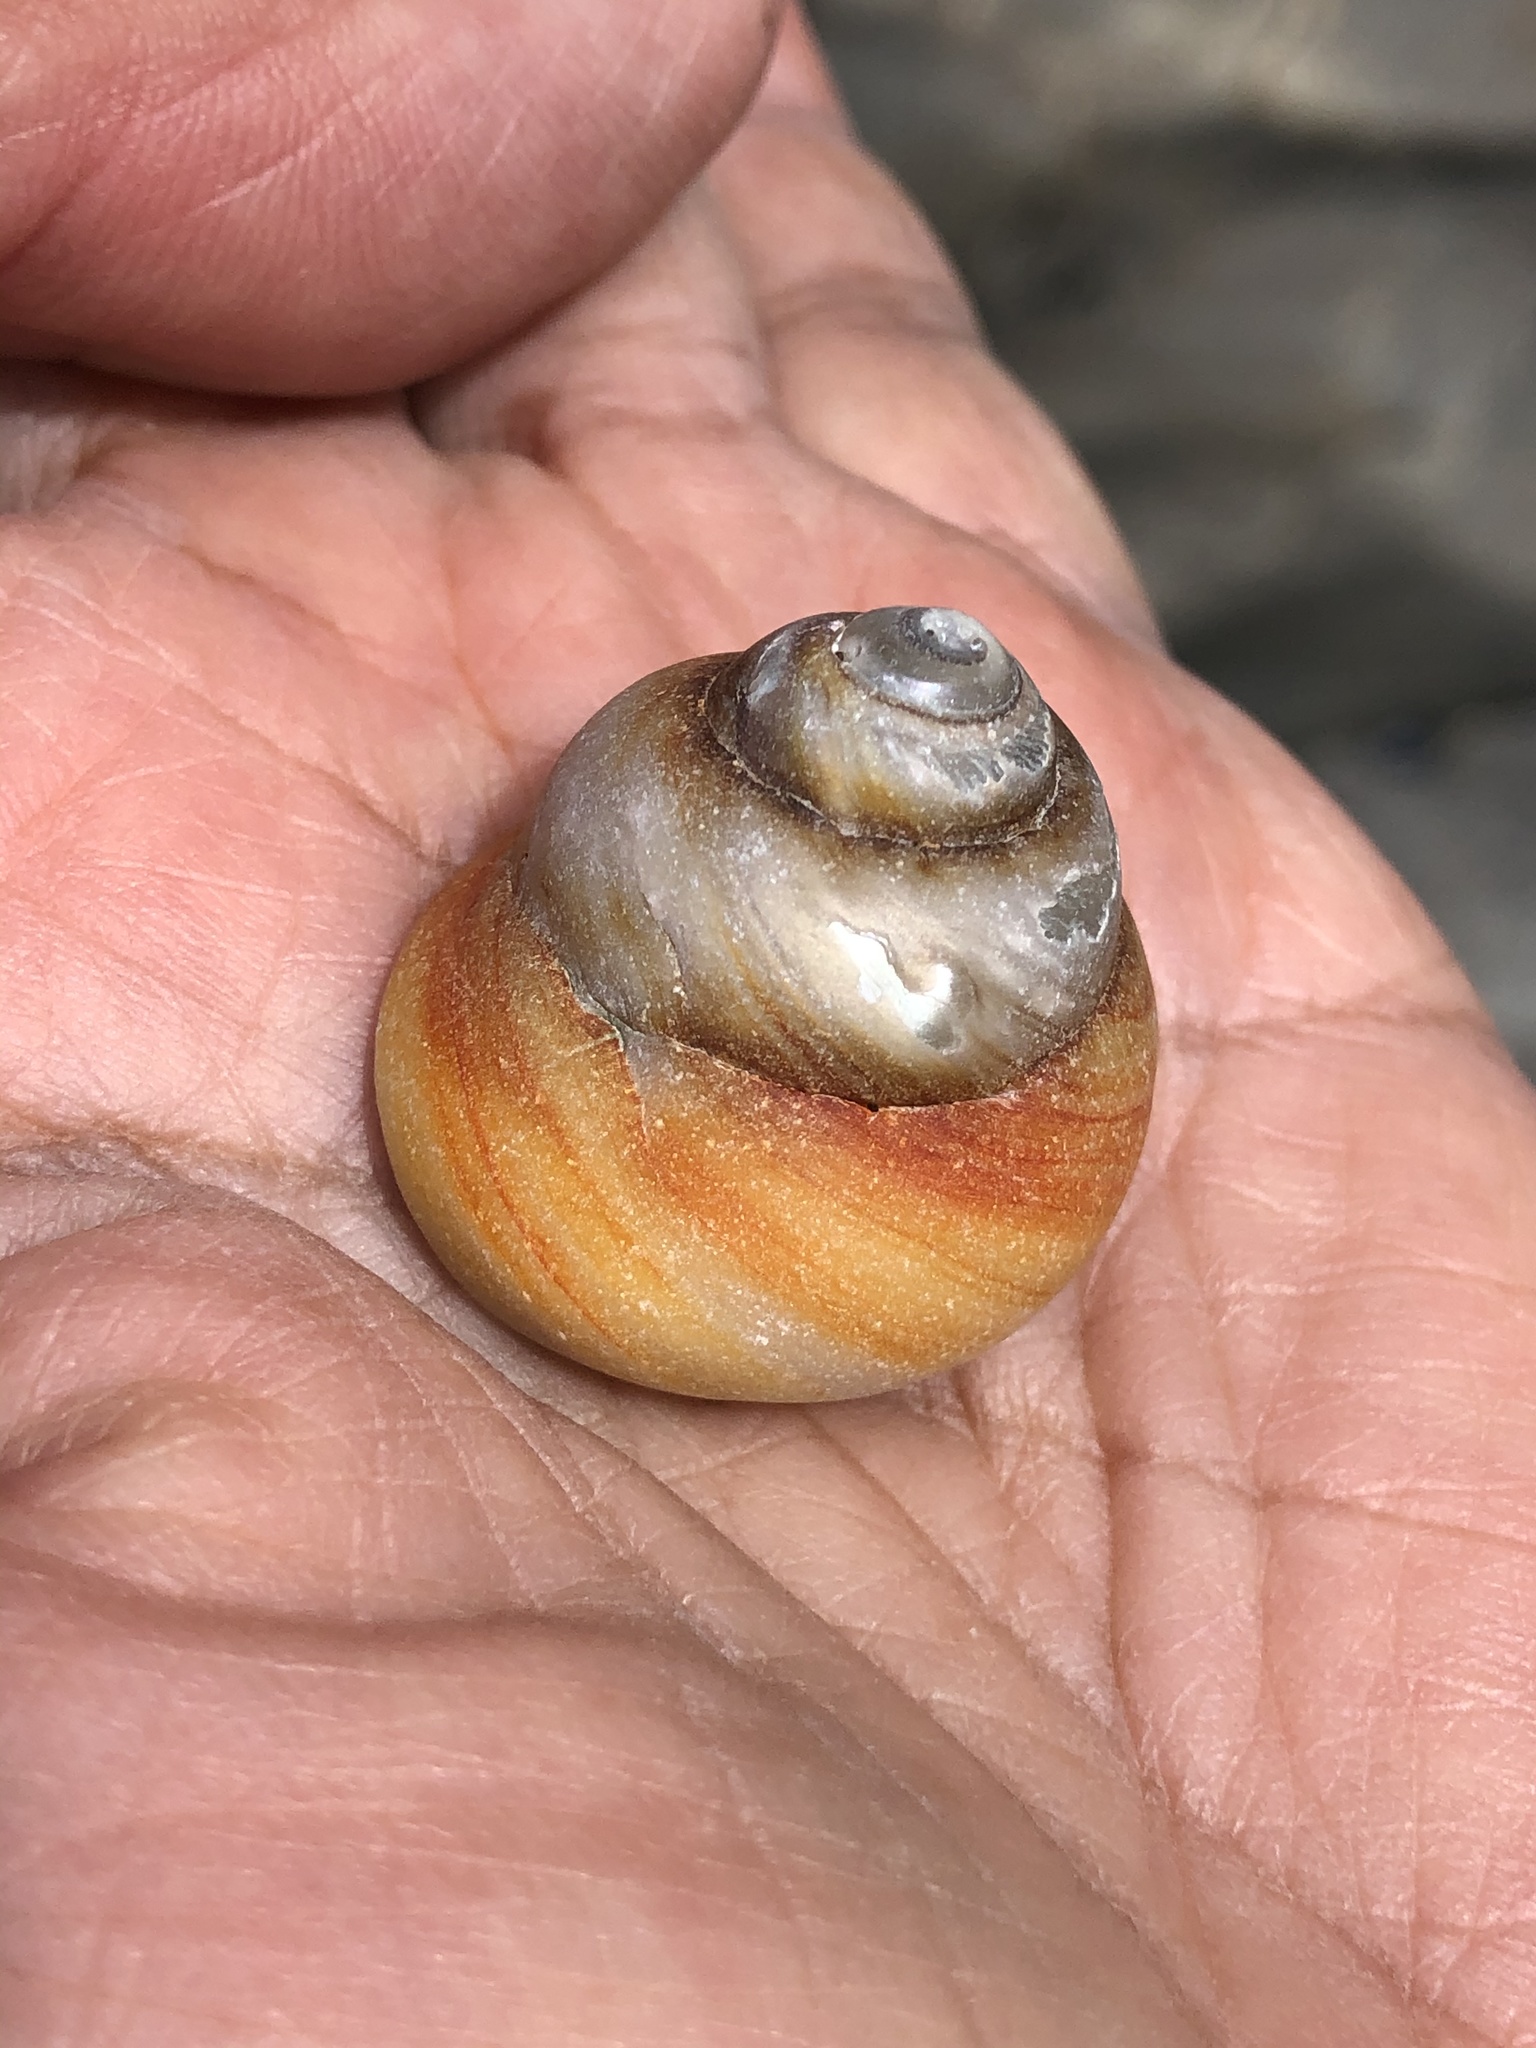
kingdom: Animalia
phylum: Mollusca
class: Gastropoda
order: Trochida
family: Tegulidae
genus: Tegula
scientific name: Tegula brunnea
